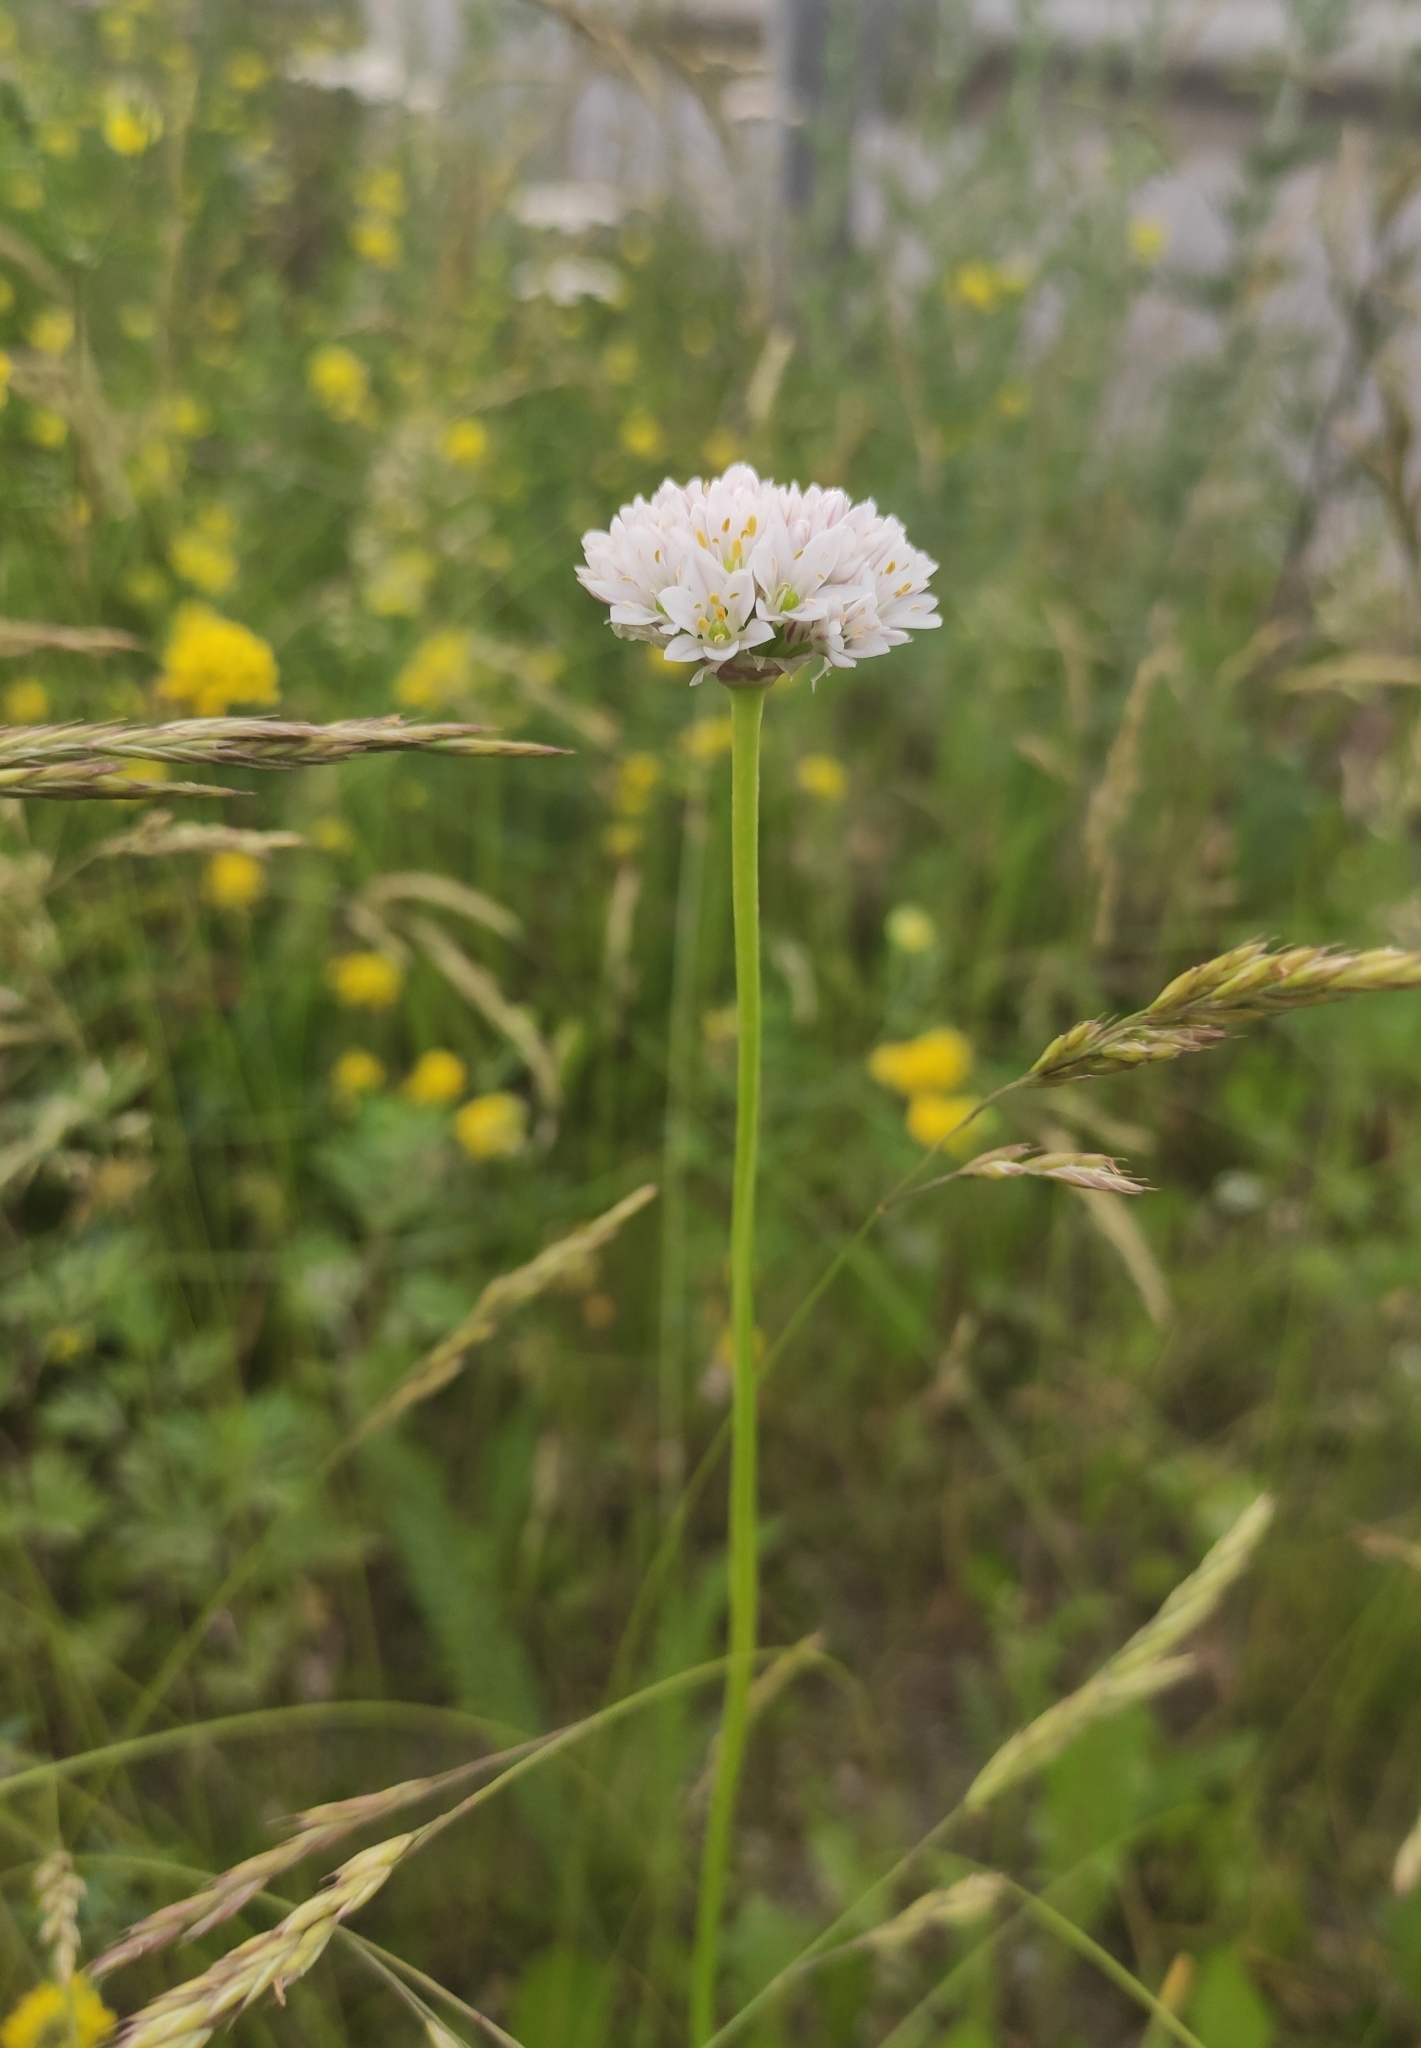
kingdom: Plantae
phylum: Tracheophyta
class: Liliopsida
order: Asparagales
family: Amaryllidaceae
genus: Allium
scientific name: Allium ramosum
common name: Fragrant garlic
